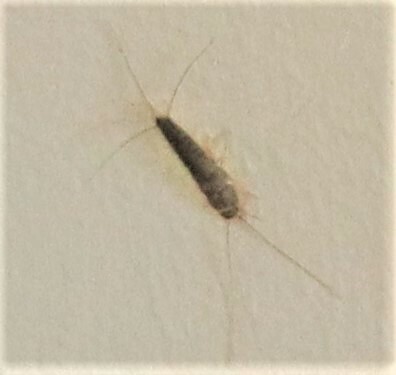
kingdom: Animalia
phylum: Arthropoda
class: Insecta
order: Zygentoma
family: Lepismatidae
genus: Ctenolepisma
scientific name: Ctenolepisma longicaudatum
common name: Silverfish
